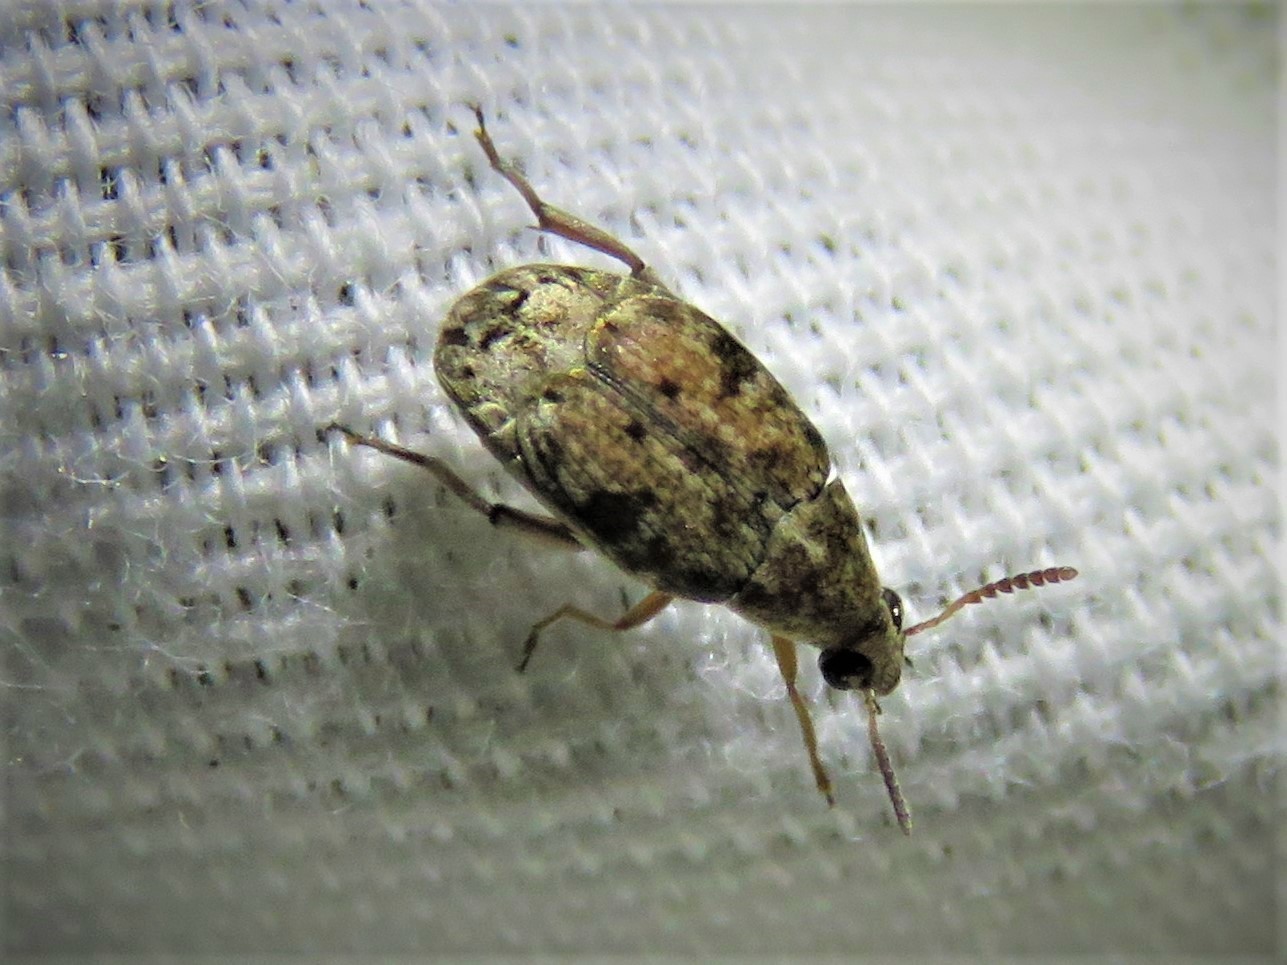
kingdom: Animalia
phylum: Arthropoda
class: Insecta
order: Coleoptera
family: Chrysomelidae
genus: Algarobius
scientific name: Algarobius bottimeri
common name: Kiawe bruchid
